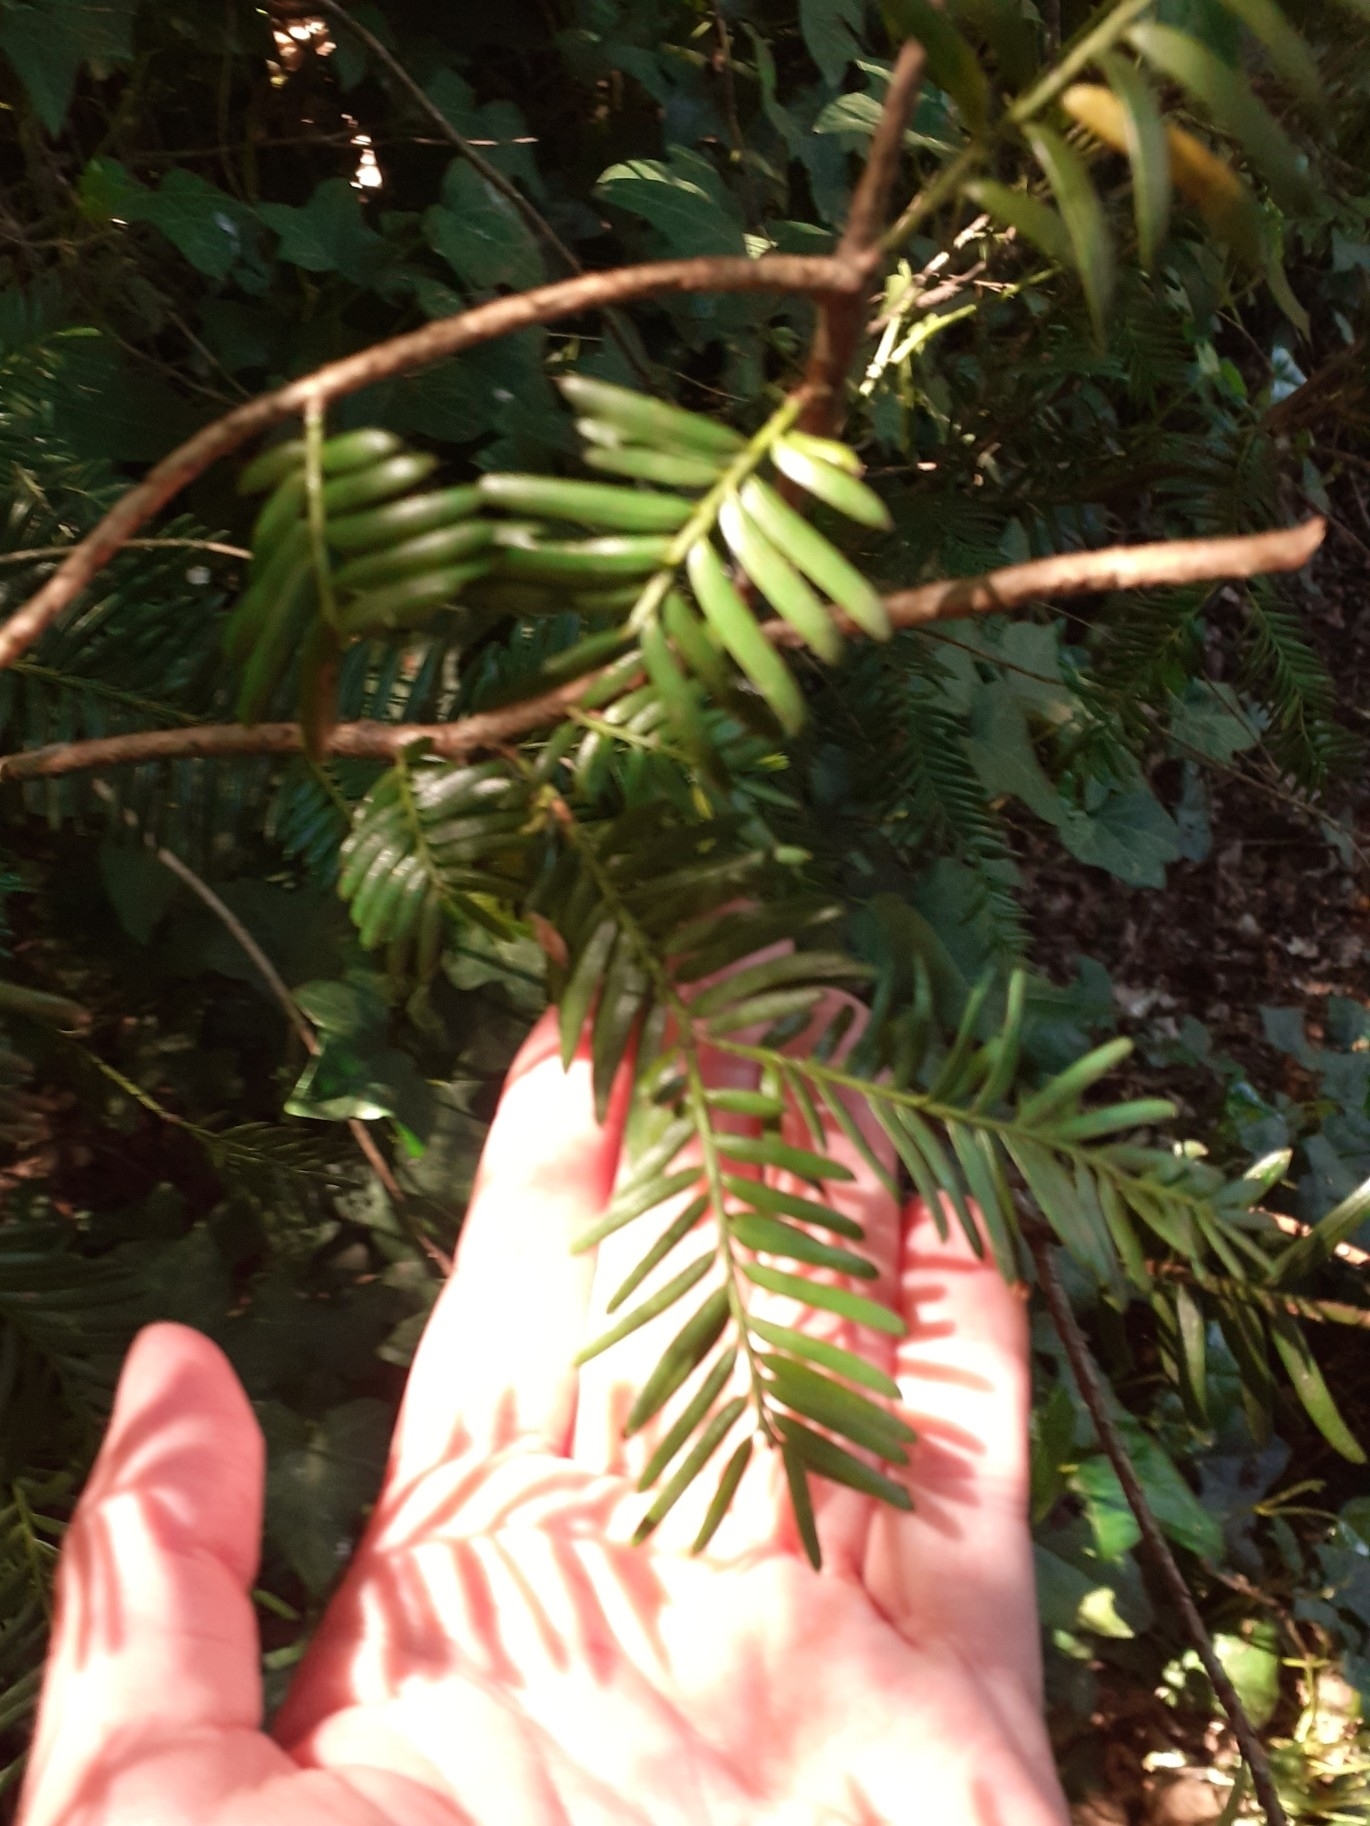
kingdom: Plantae
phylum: Tracheophyta
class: Pinopsida
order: Pinales
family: Taxaceae
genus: Taxus
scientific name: Taxus baccata
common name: Yew
